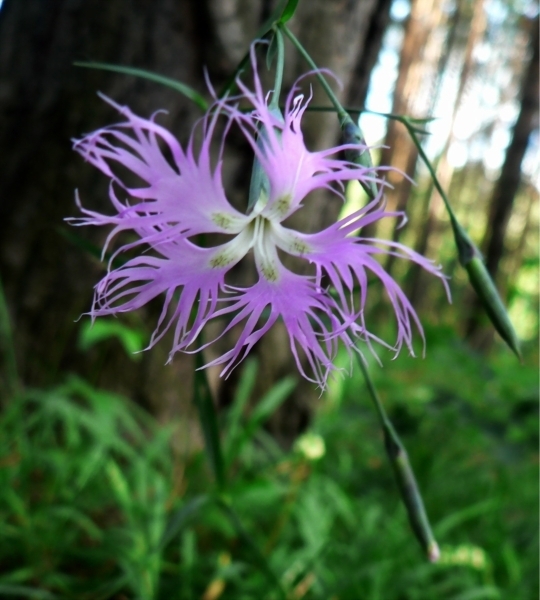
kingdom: Plantae
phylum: Tracheophyta
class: Magnoliopsida
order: Caryophyllales
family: Caryophyllaceae
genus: Dianthus
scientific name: Dianthus superbus
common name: Fringed pink
